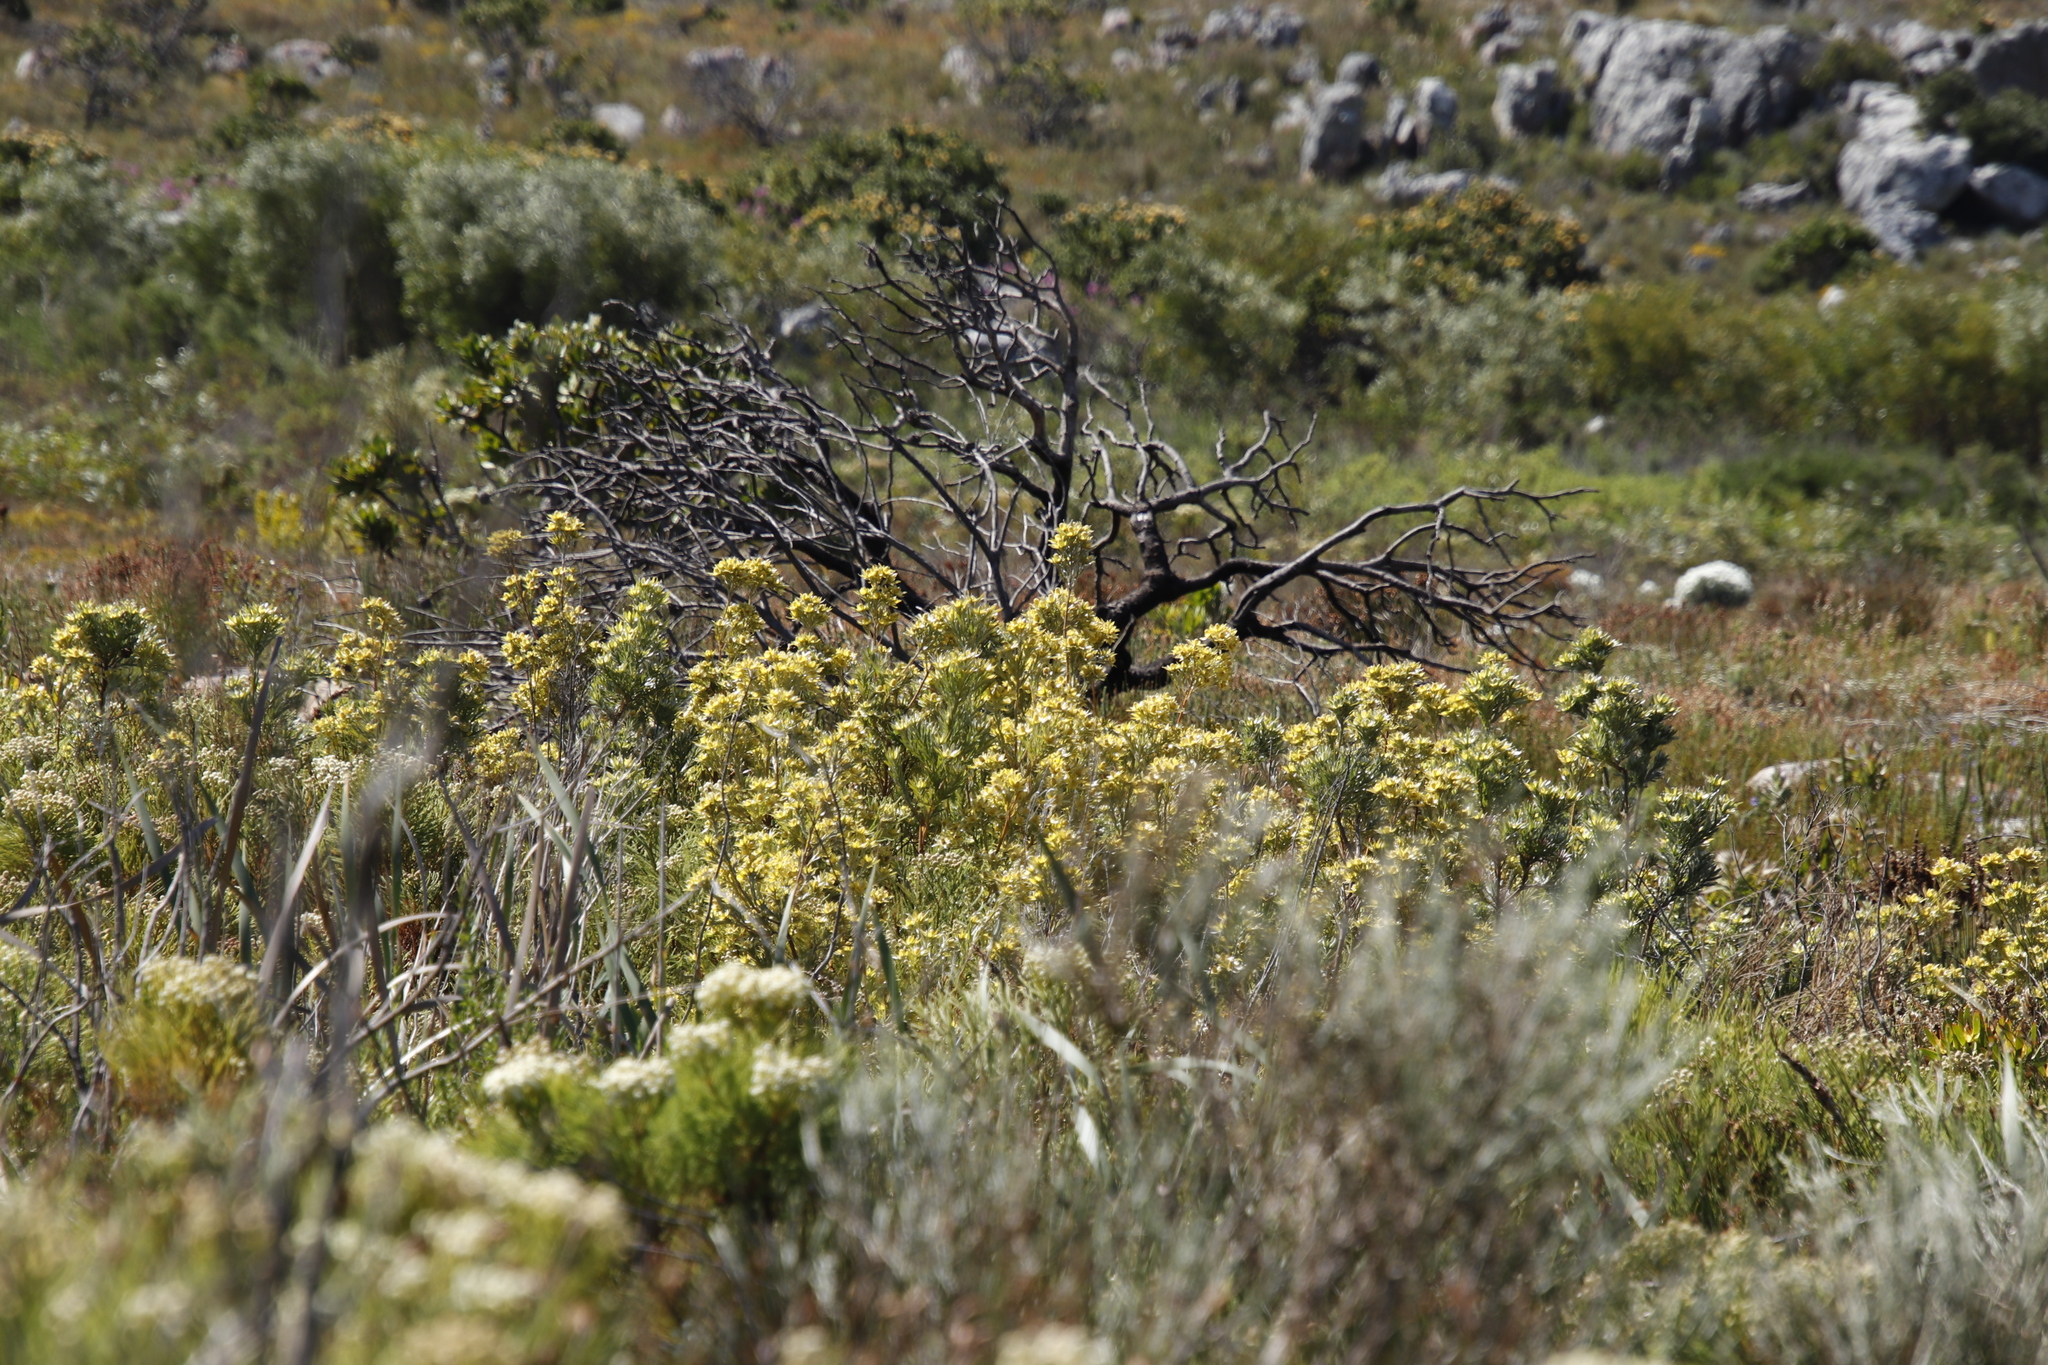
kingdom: Plantae
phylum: Tracheophyta
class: Magnoliopsida
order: Proteales
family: Proteaceae
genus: Leucadendron
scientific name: Leucadendron floridum
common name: Flats conebush
